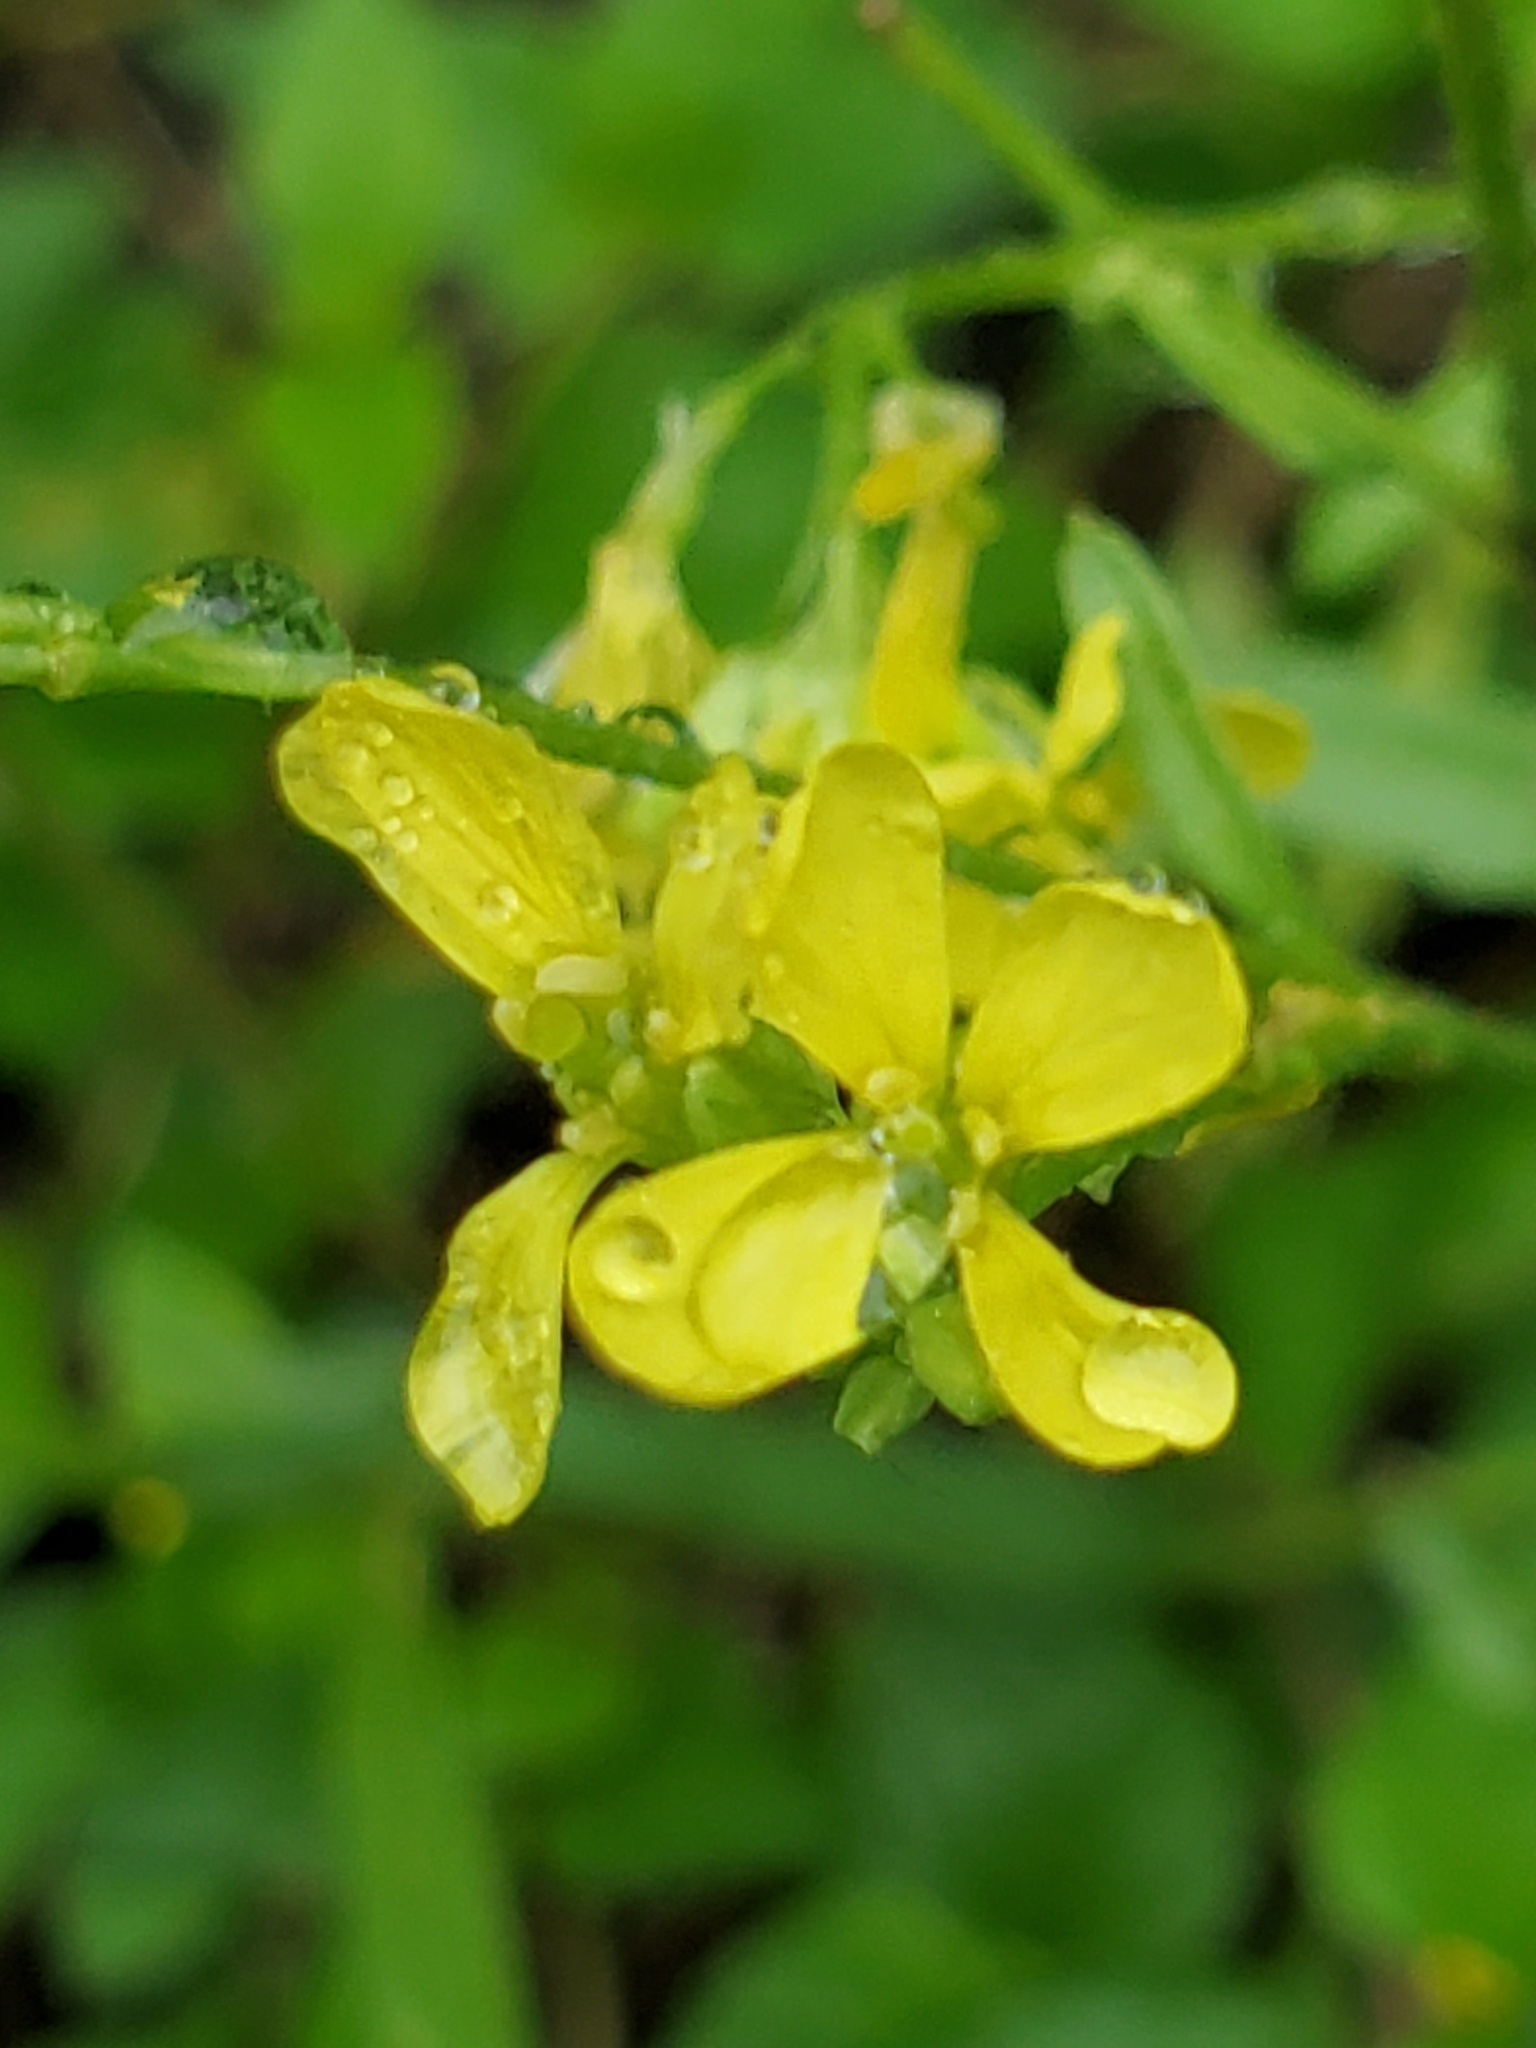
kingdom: Plantae
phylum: Tracheophyta
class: Magnoliopsida
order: Brassicales
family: Brassicaceae
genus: Rapistrum
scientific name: Rapistrum rugosum
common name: Annual bastardcabbage
